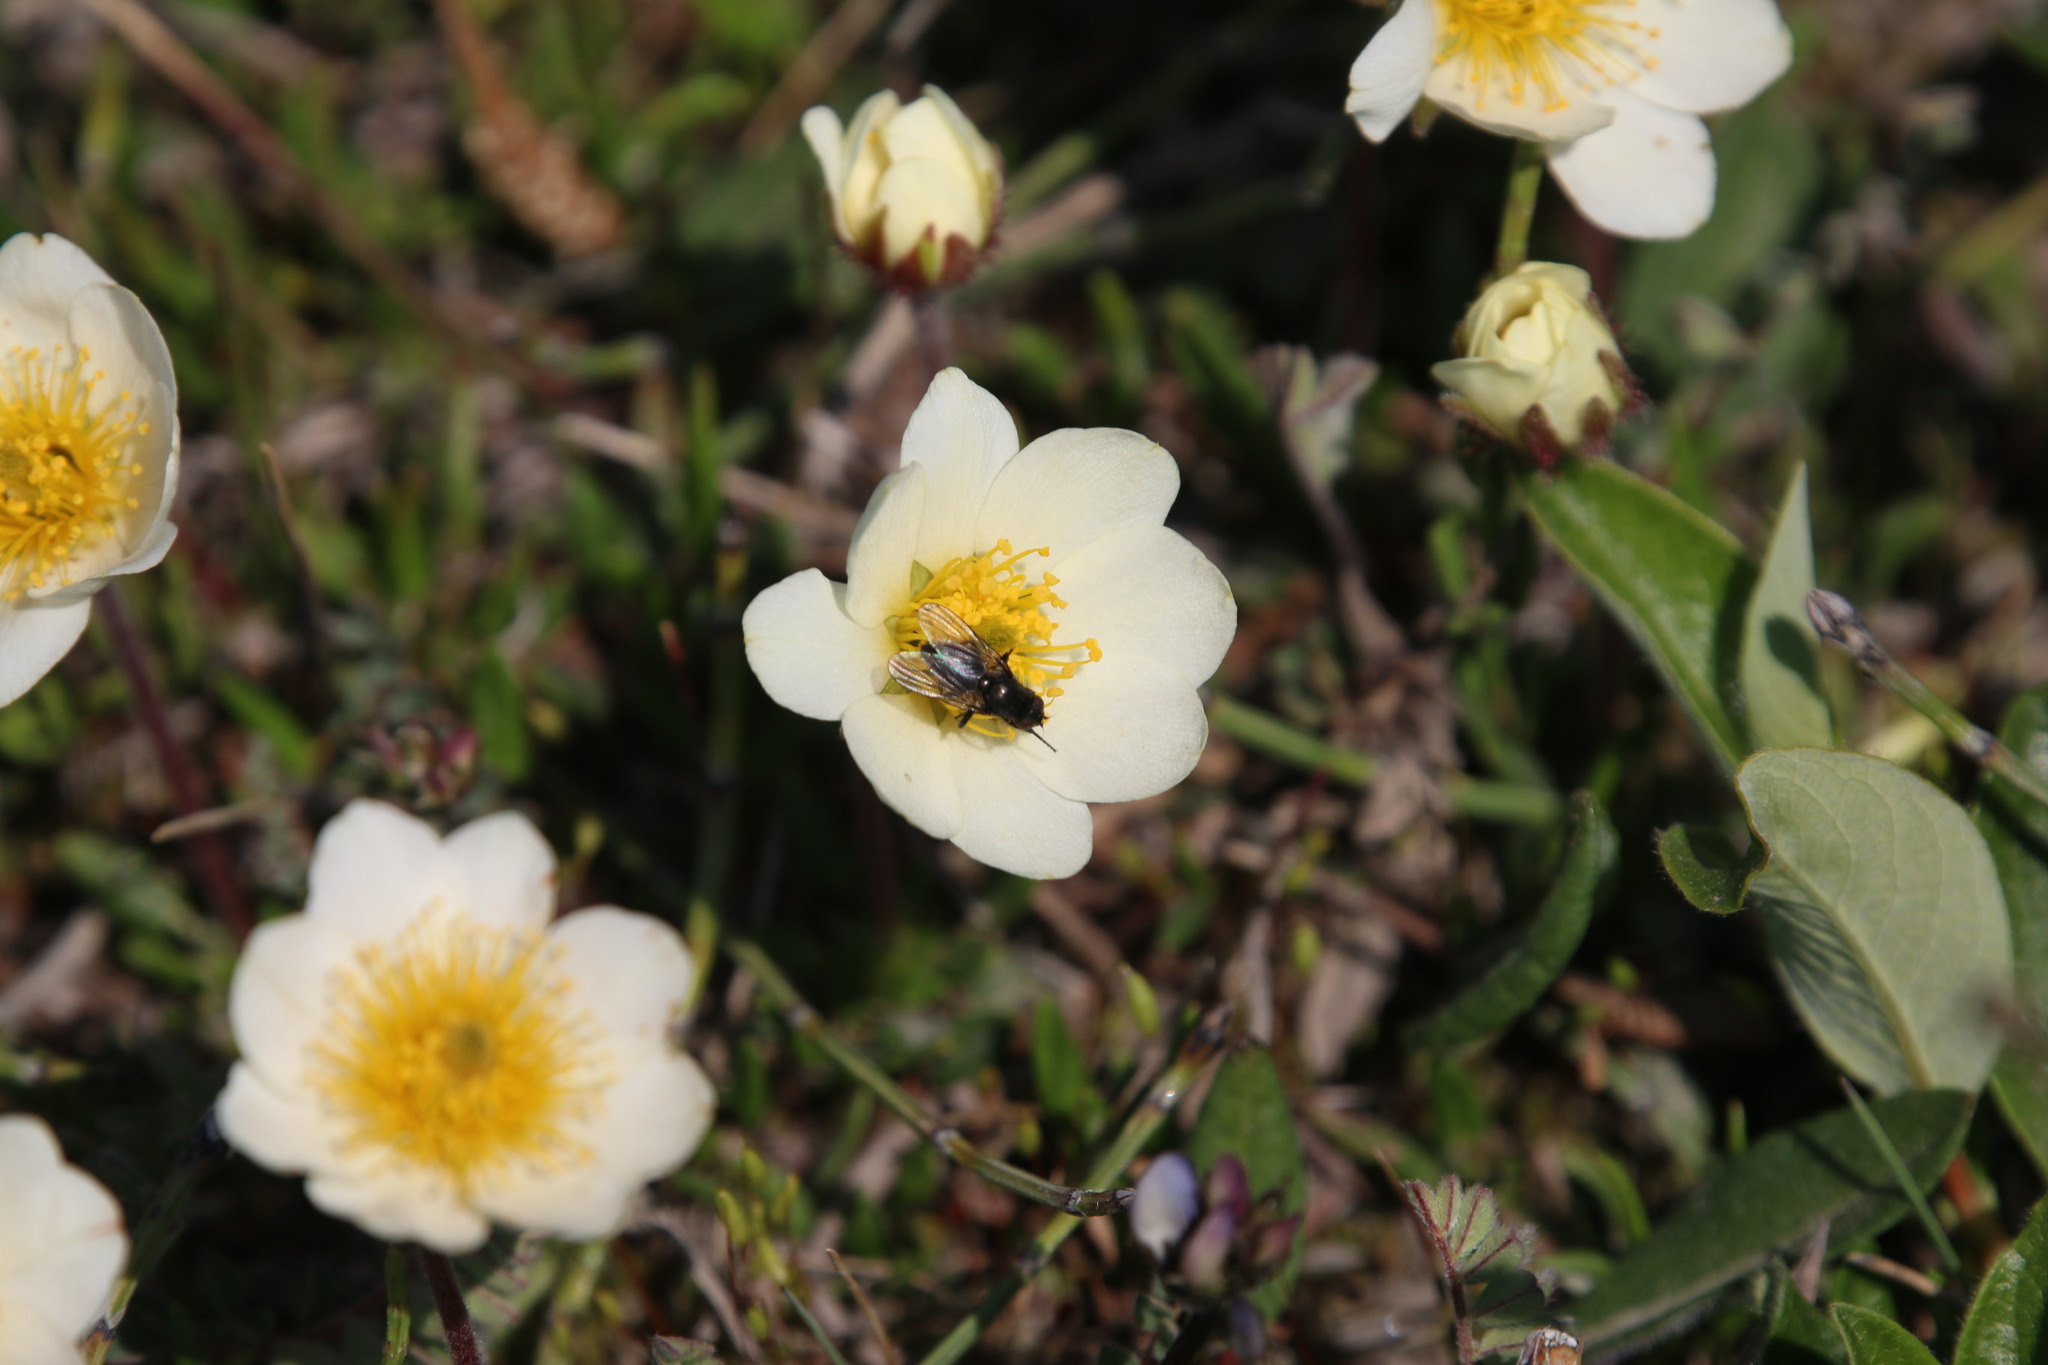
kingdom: Plantae
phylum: Tracheophyta
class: Magnoliopsida
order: Rosales
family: Rosaceae
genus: Dryas
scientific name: Dryas integrifolia
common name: Entire-leaved mountain avens
